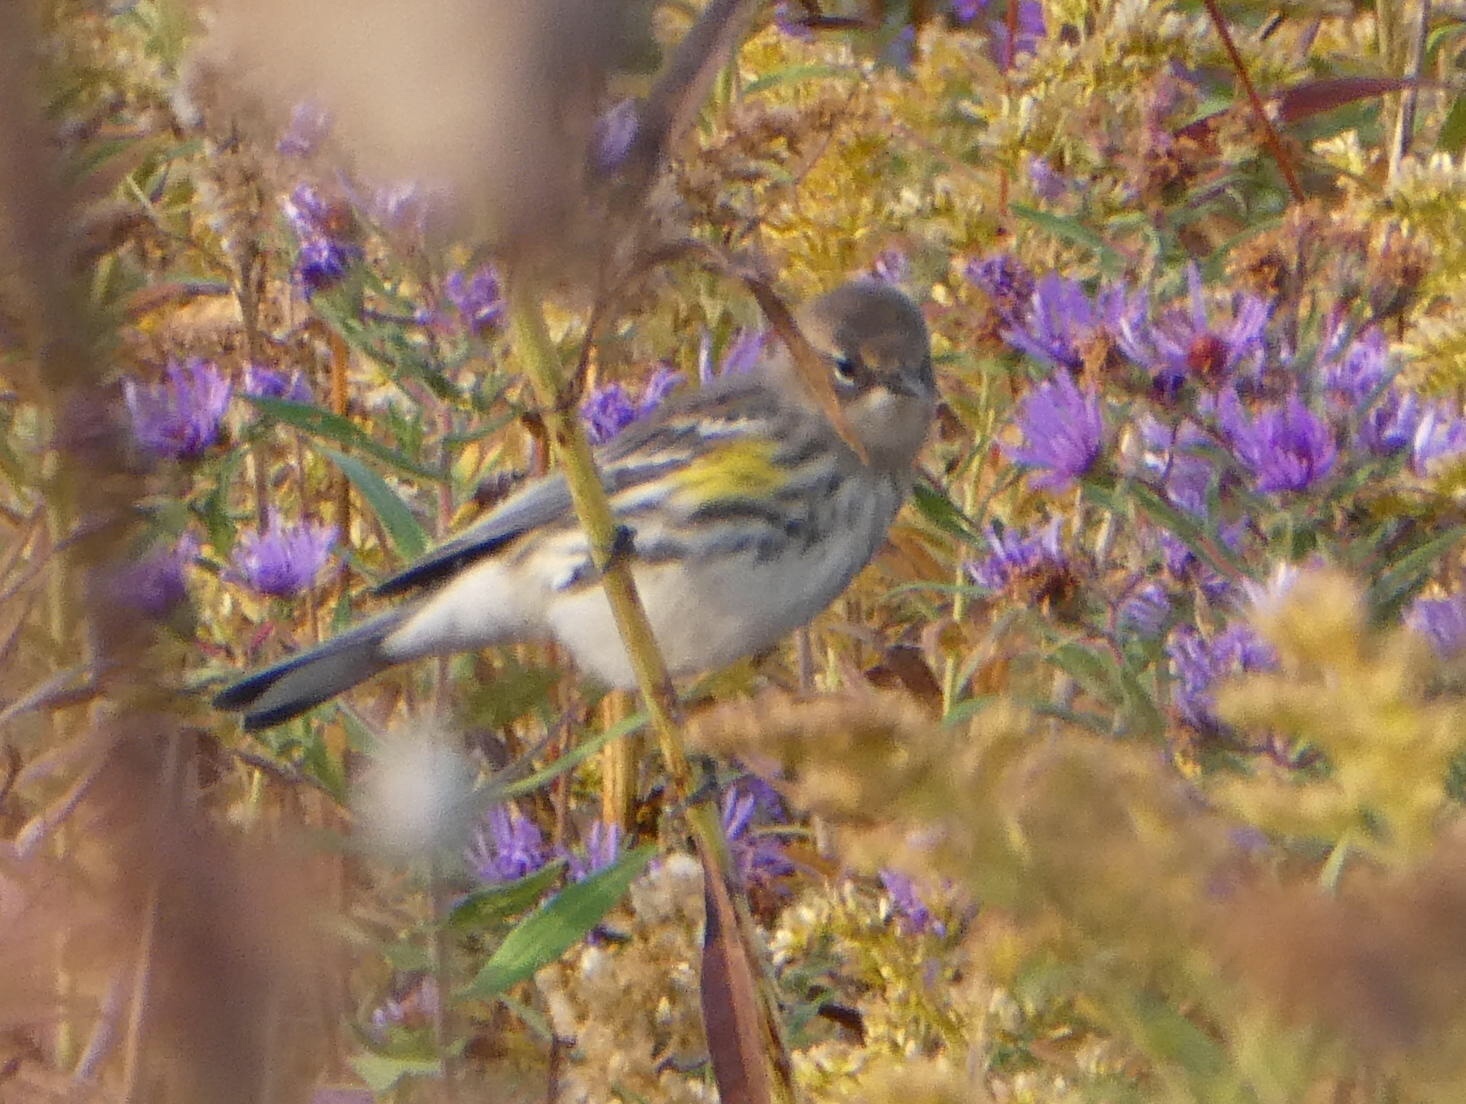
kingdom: Animalia
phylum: Chordata
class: Aves
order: Passeriformes
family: Parulidae
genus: Setophaga
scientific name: Setophaga coronata
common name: Myrtle warbler
